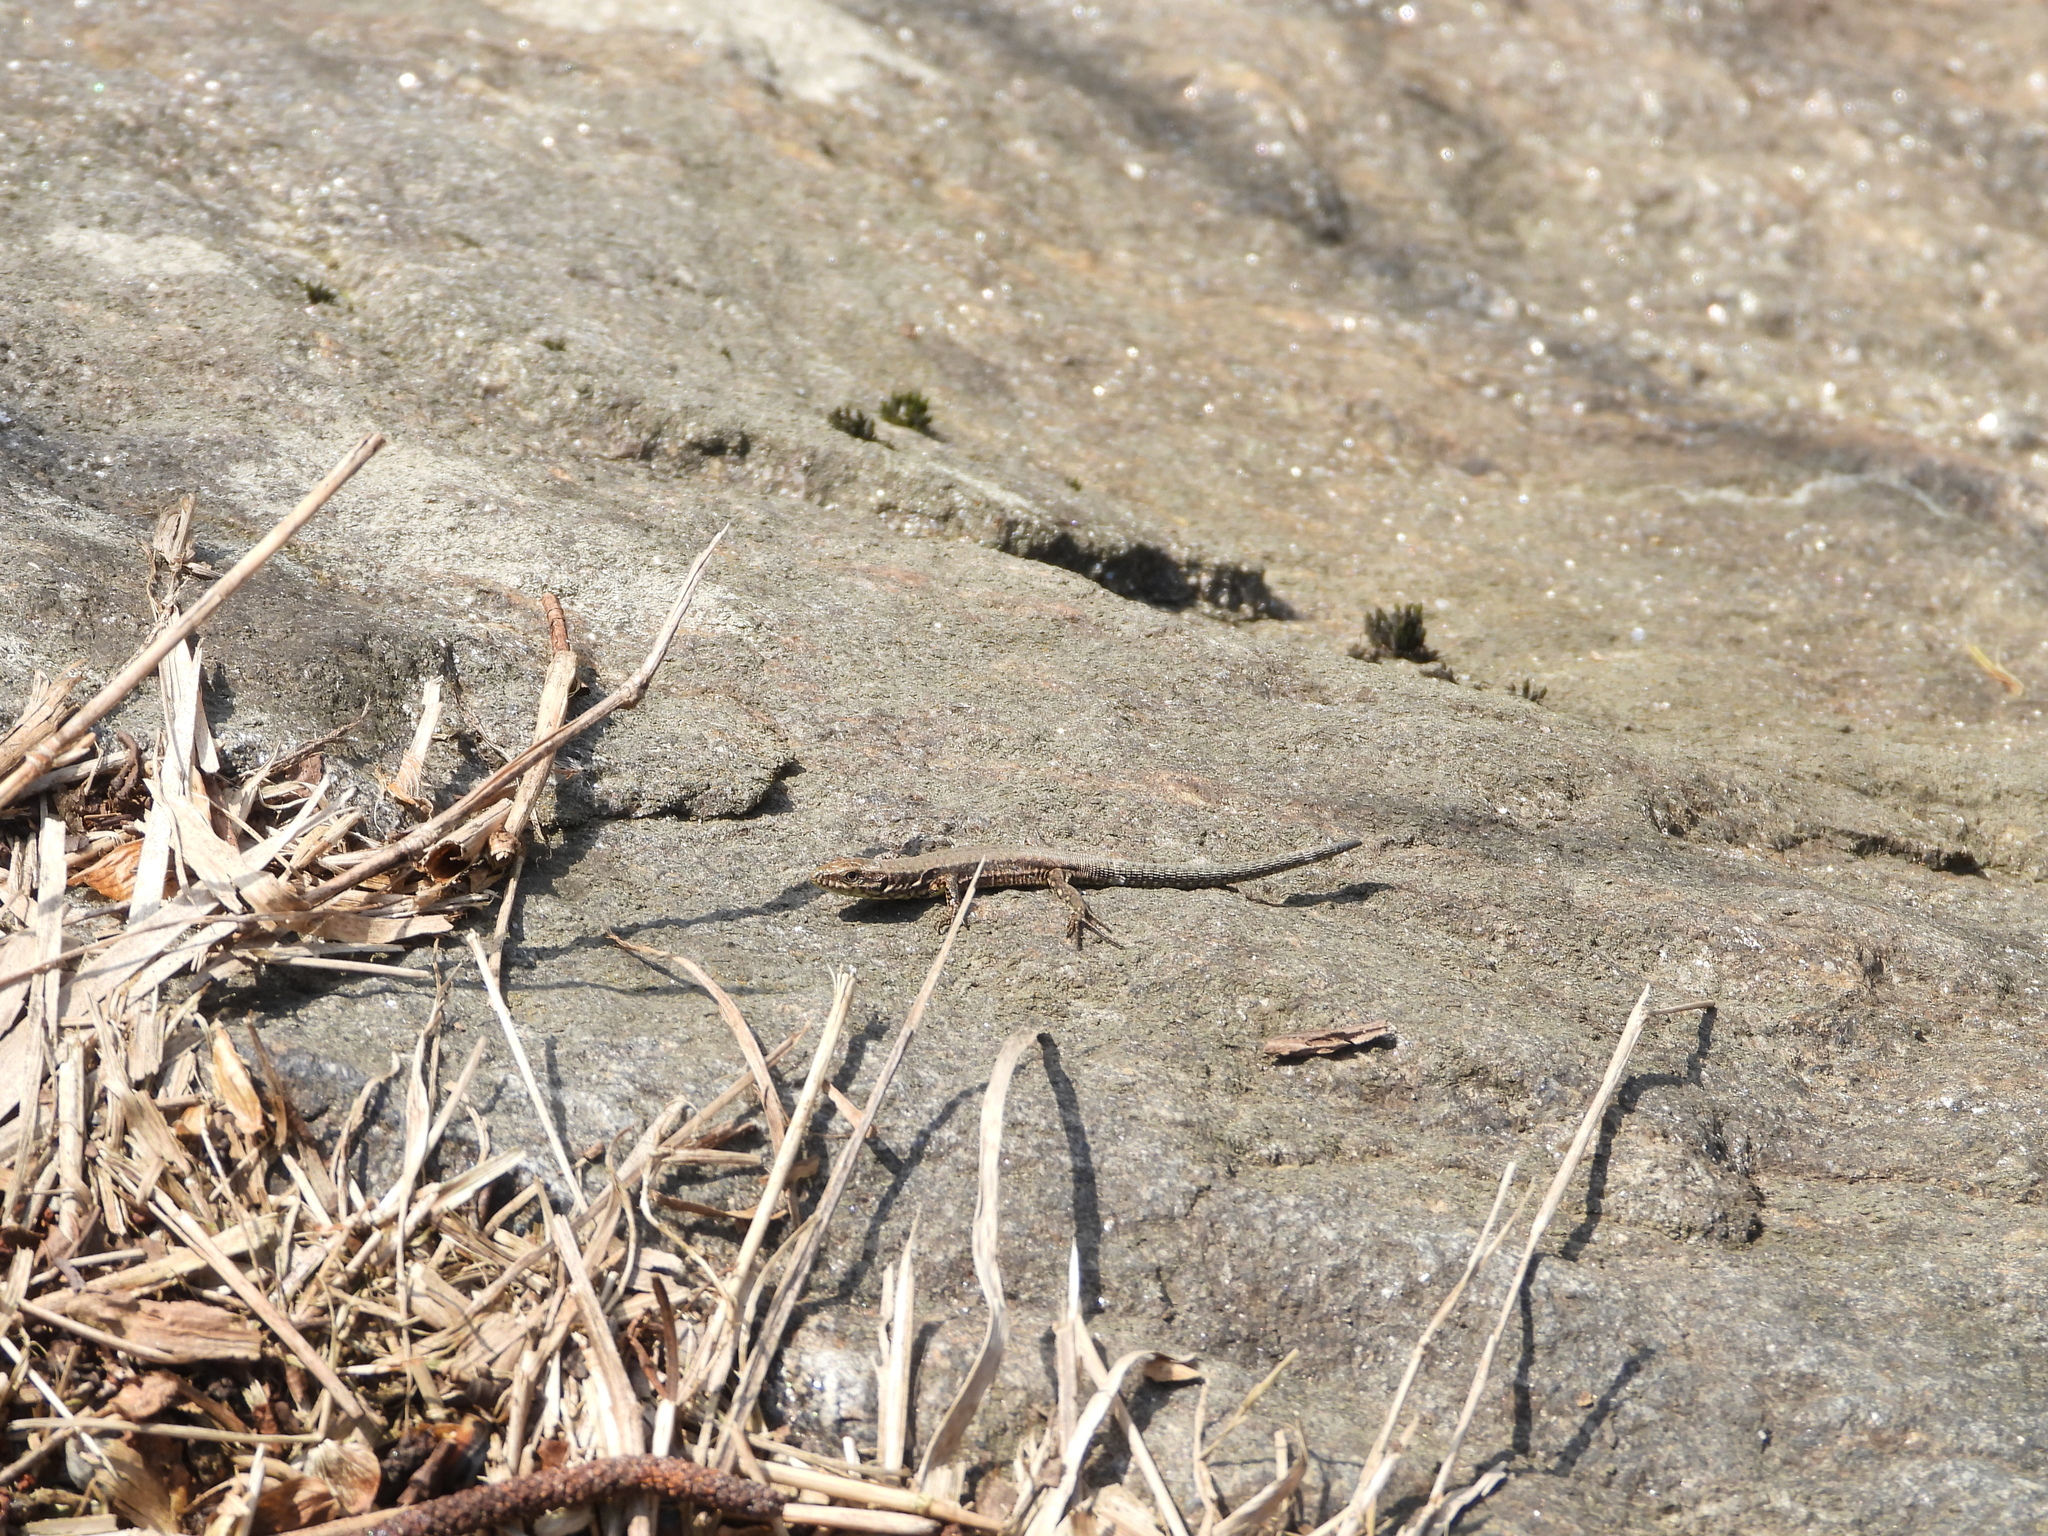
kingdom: Animalia
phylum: Chordata
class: Squamata
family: Lacertidae
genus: Podarcis
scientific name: Podarcis muralis
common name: Common wall lizard
